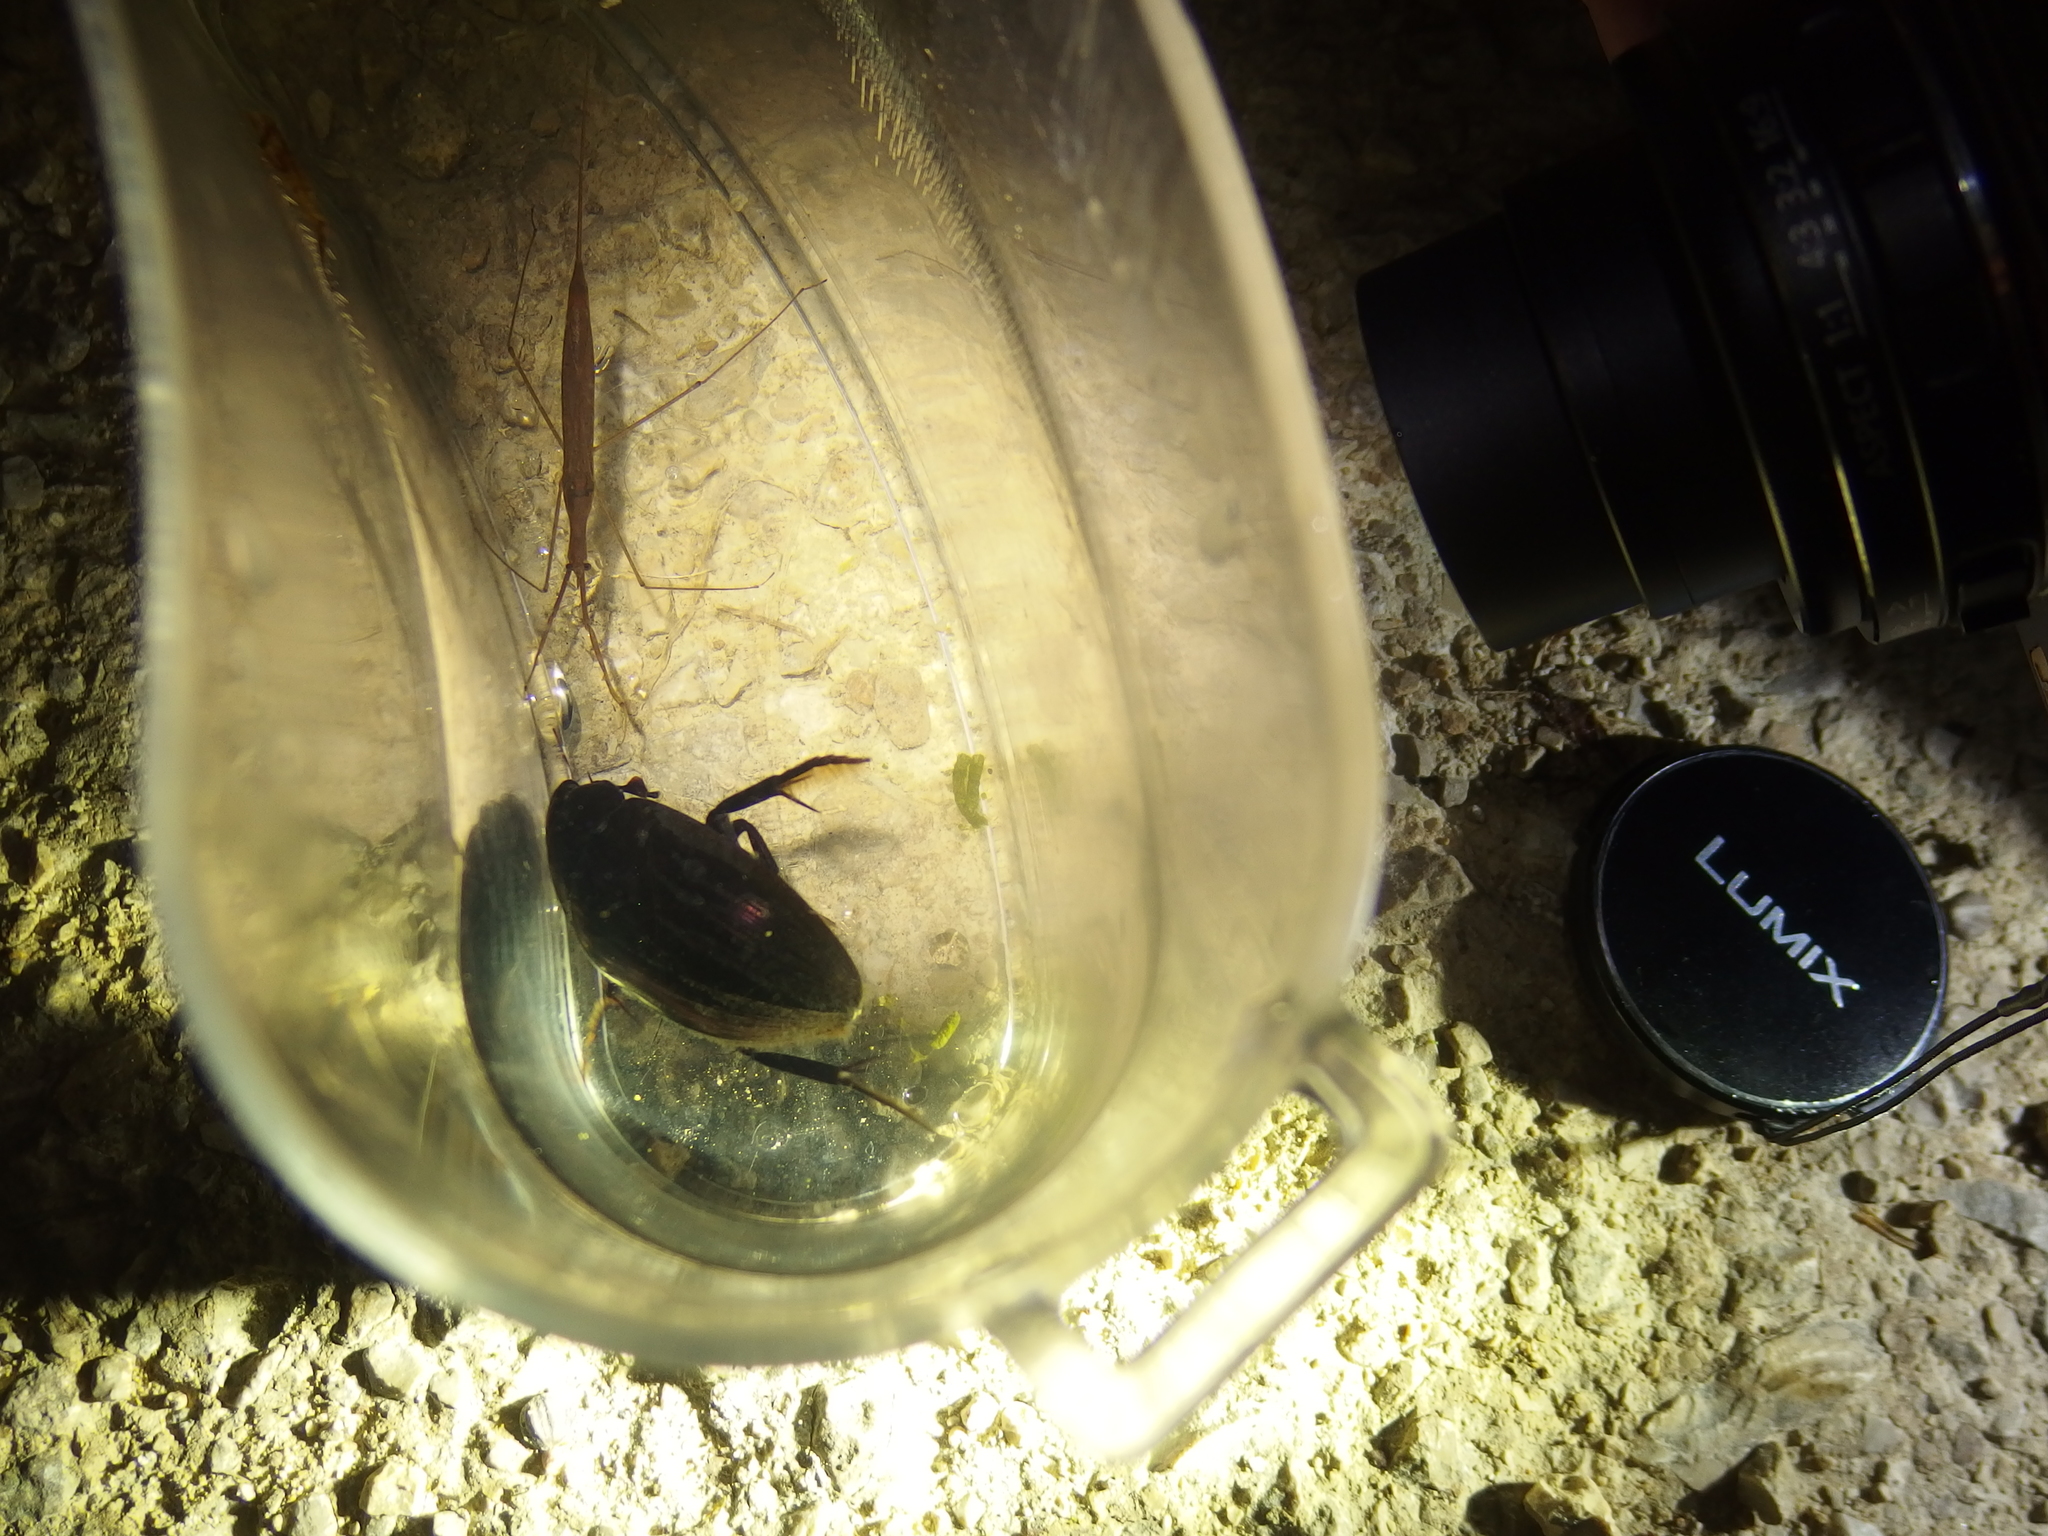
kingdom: Animalia
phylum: Arthropoda
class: Insecta
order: Hemiptera
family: Nepidae
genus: Ranatra
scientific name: Ranatra linearis
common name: Water stick insect
